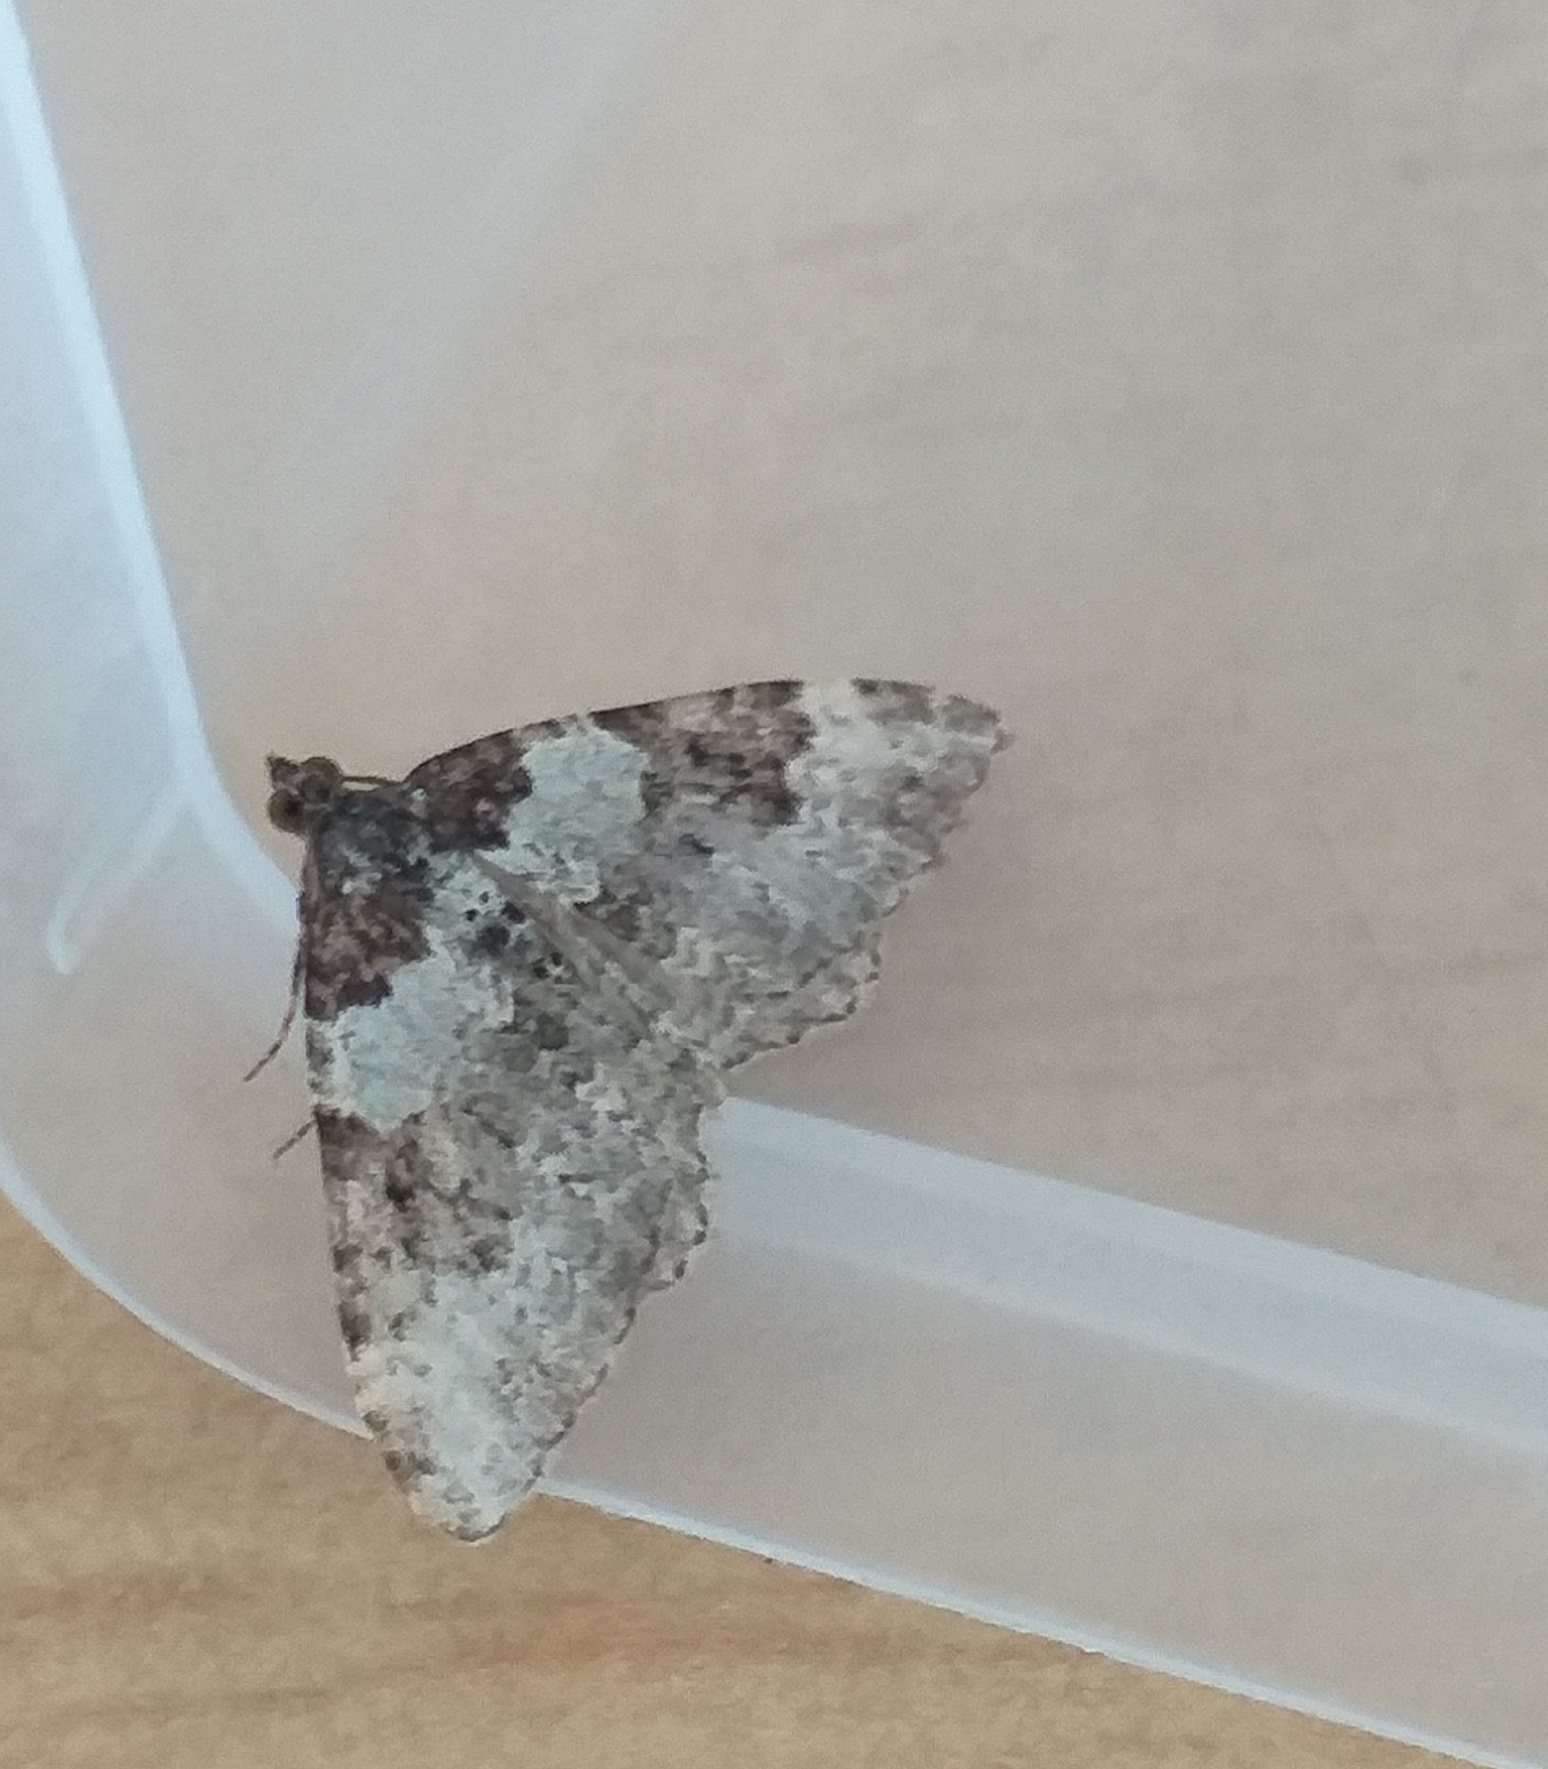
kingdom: Animalia
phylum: Arthropoda
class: Insecta
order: Lepidoptera
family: Geometridae
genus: Xanthorhoe
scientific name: Xanthorhoe fluctuata
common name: Garden carpet
